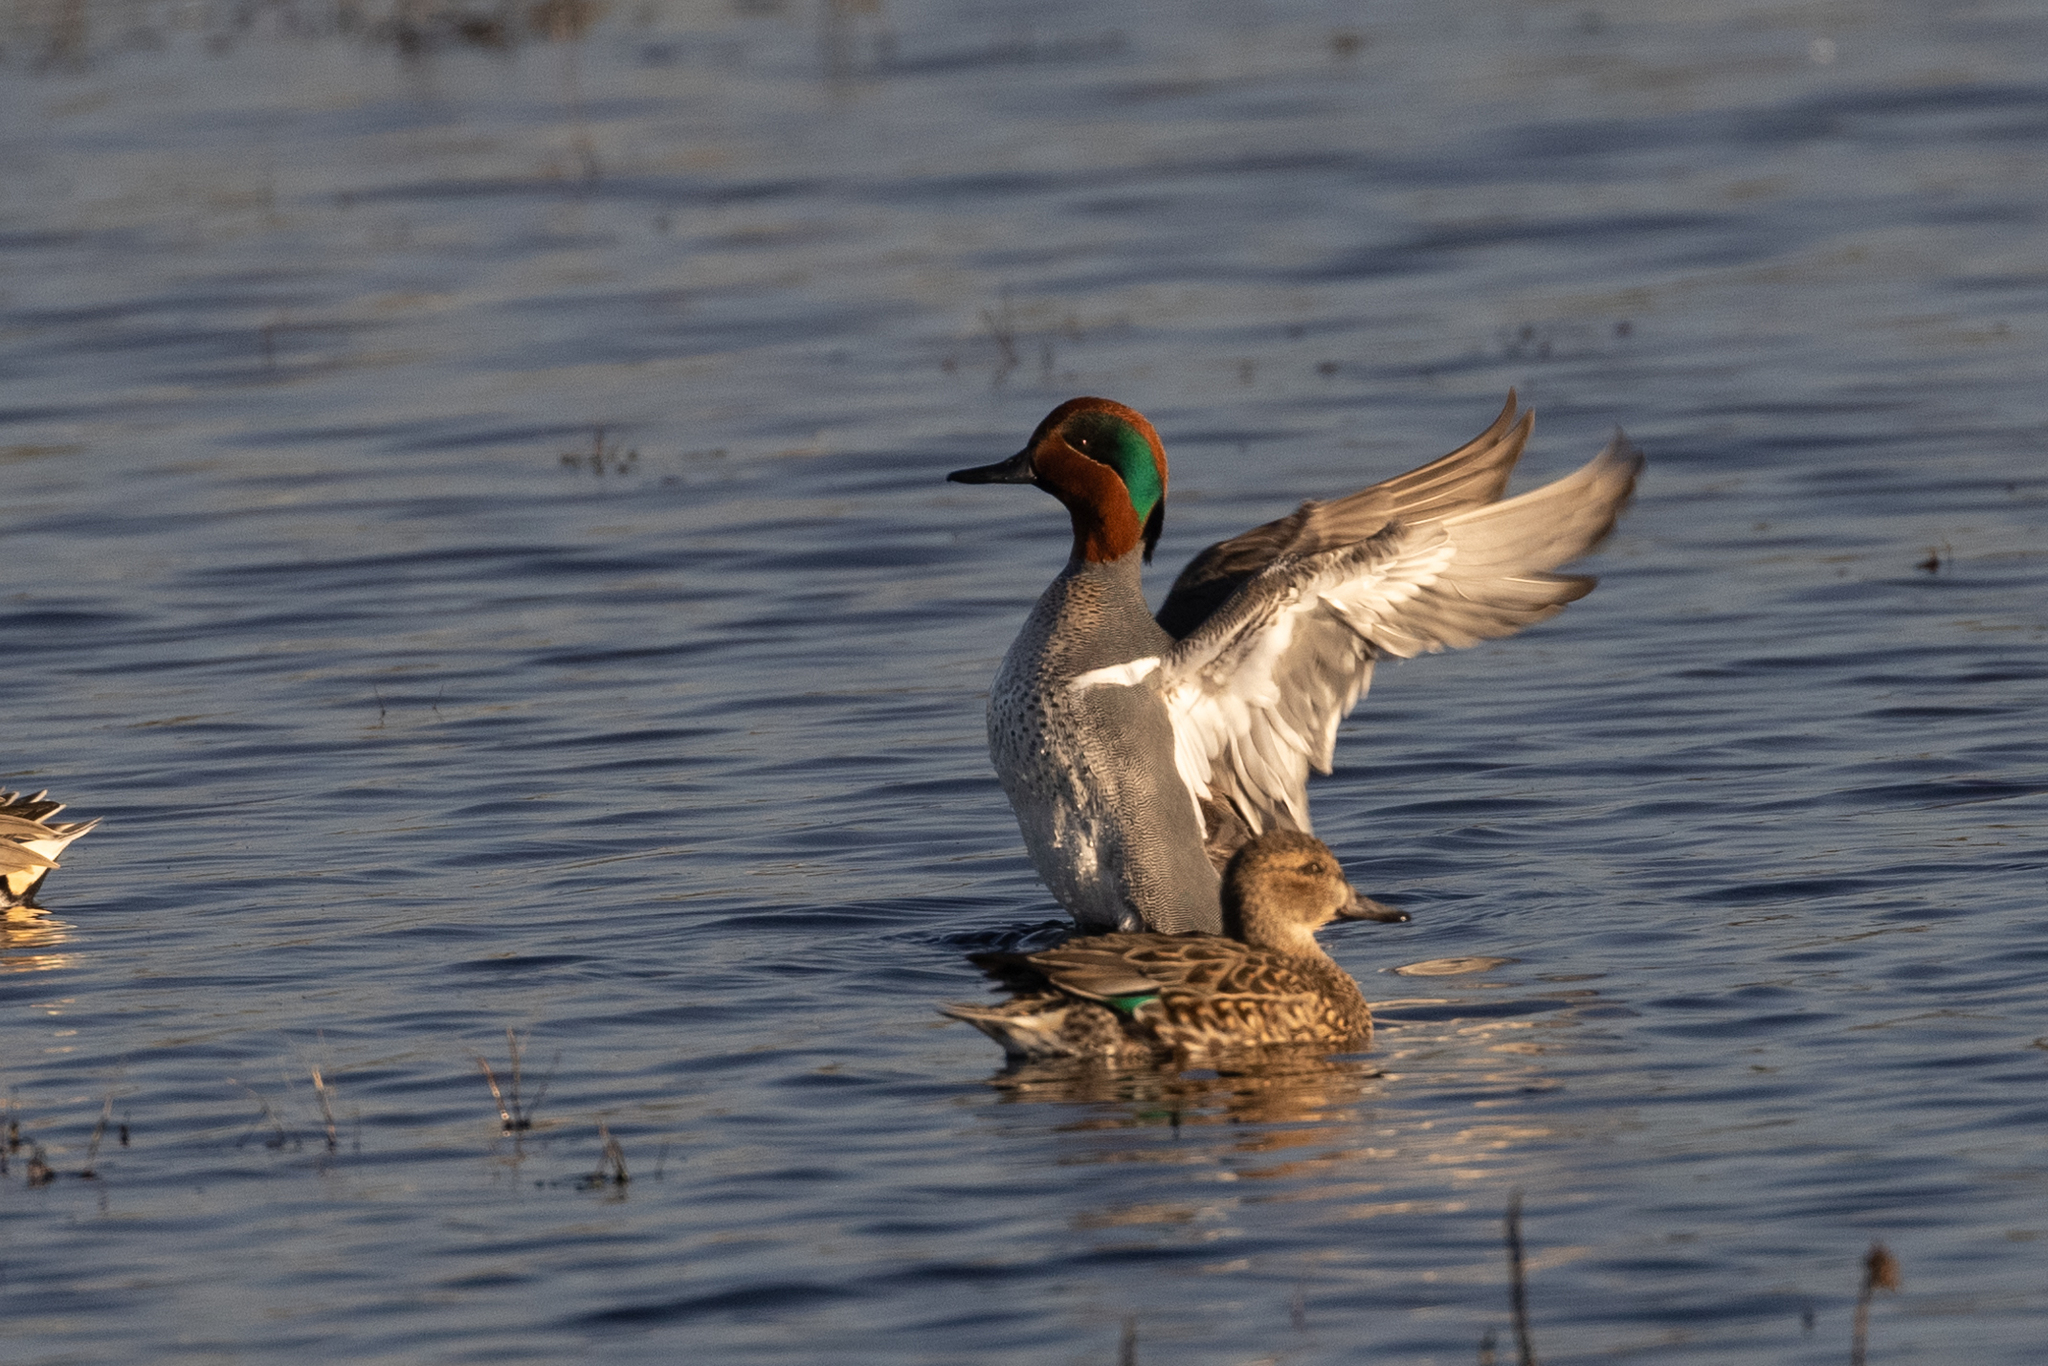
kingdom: Animalia
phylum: Chordata
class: Aves
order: Anseriformes
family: Anatidae
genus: Anas
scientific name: Anas crecca
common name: Eurasian teal
